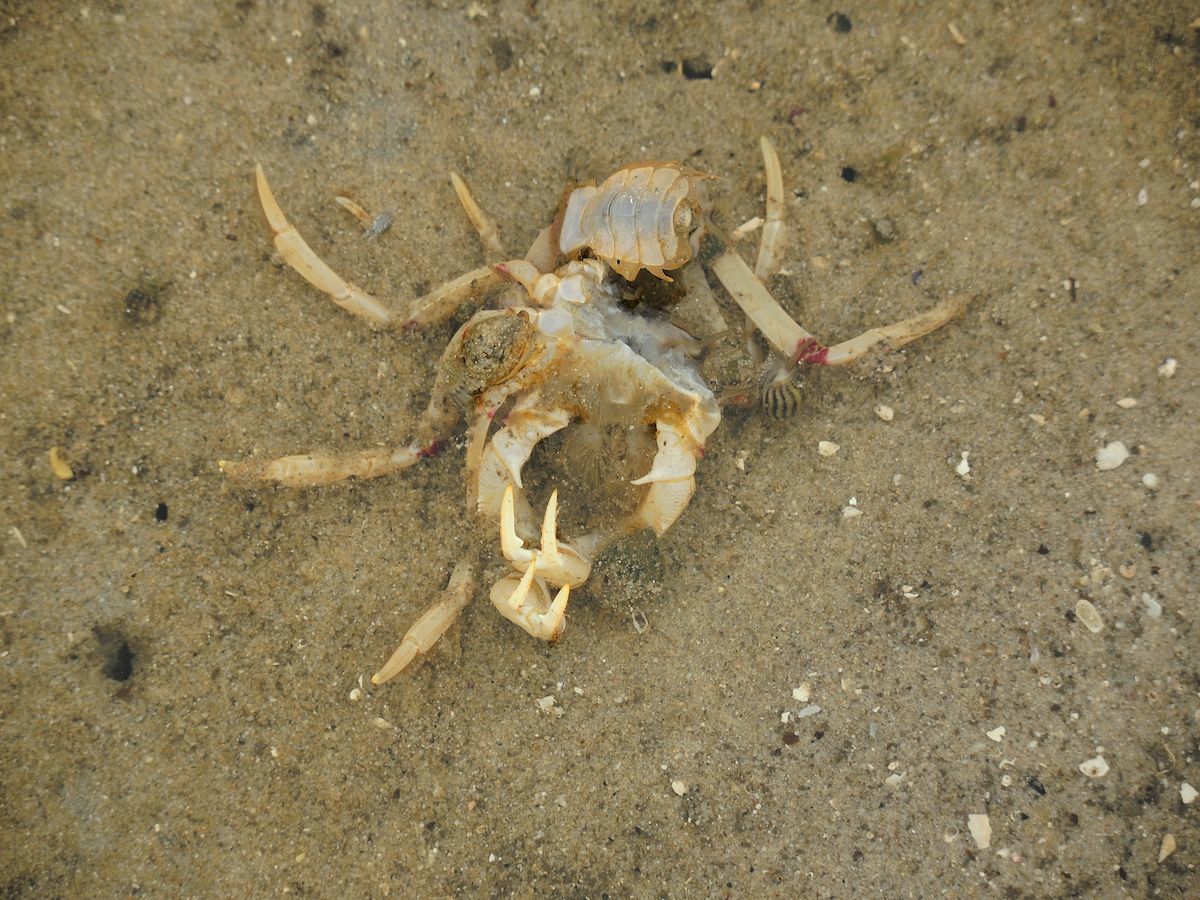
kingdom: Animalia
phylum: Mollusca
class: Gastropoda
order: Neogastropoda
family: Nassariidae
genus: Nassarius
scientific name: Nassarius jonasii
